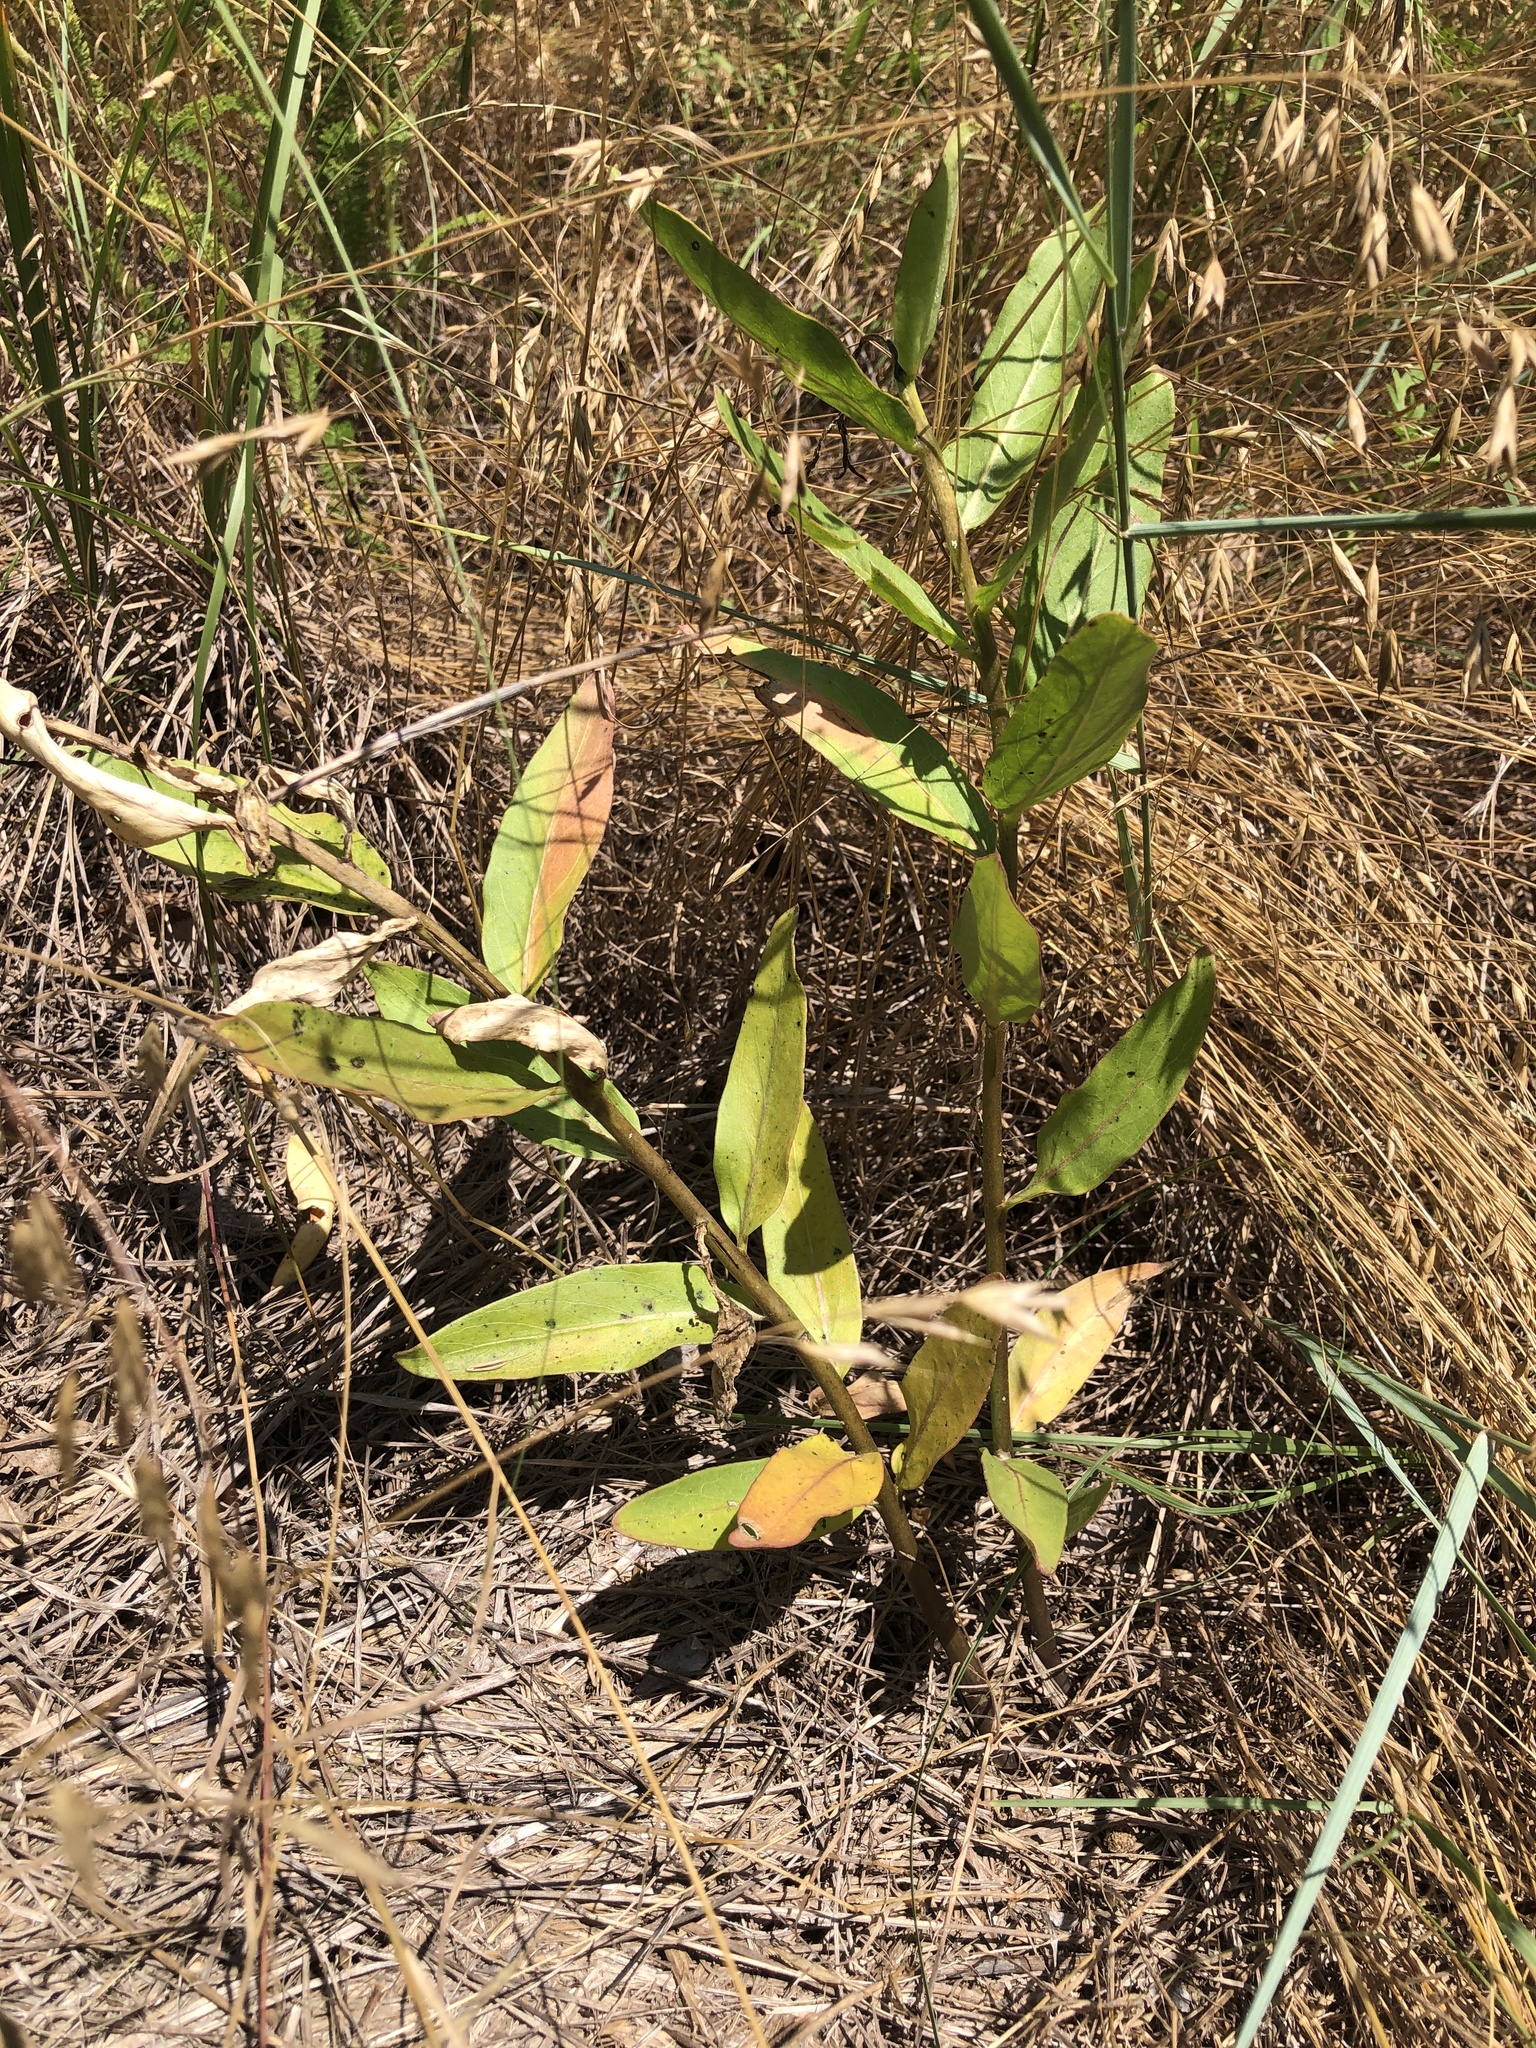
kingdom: Plantae
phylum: Tracheophyta
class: Magnoliopsida
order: Gentianales
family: Apocynaceae
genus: Asclepias
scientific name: Asclepias viridis
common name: Antelope-horns
